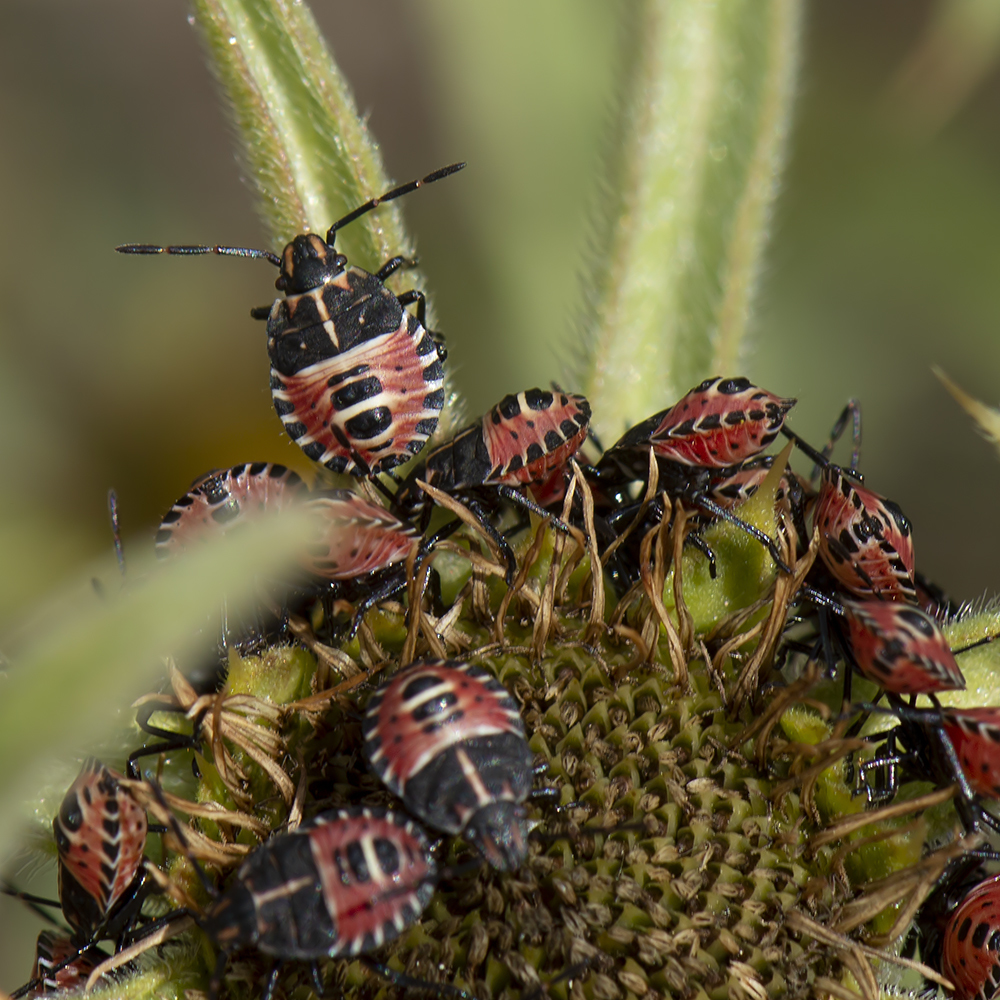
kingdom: Animalia
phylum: Arthropoda
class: Insecta
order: Hemiptera
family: Miridae
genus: Orthops
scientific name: Orthops kalmii
